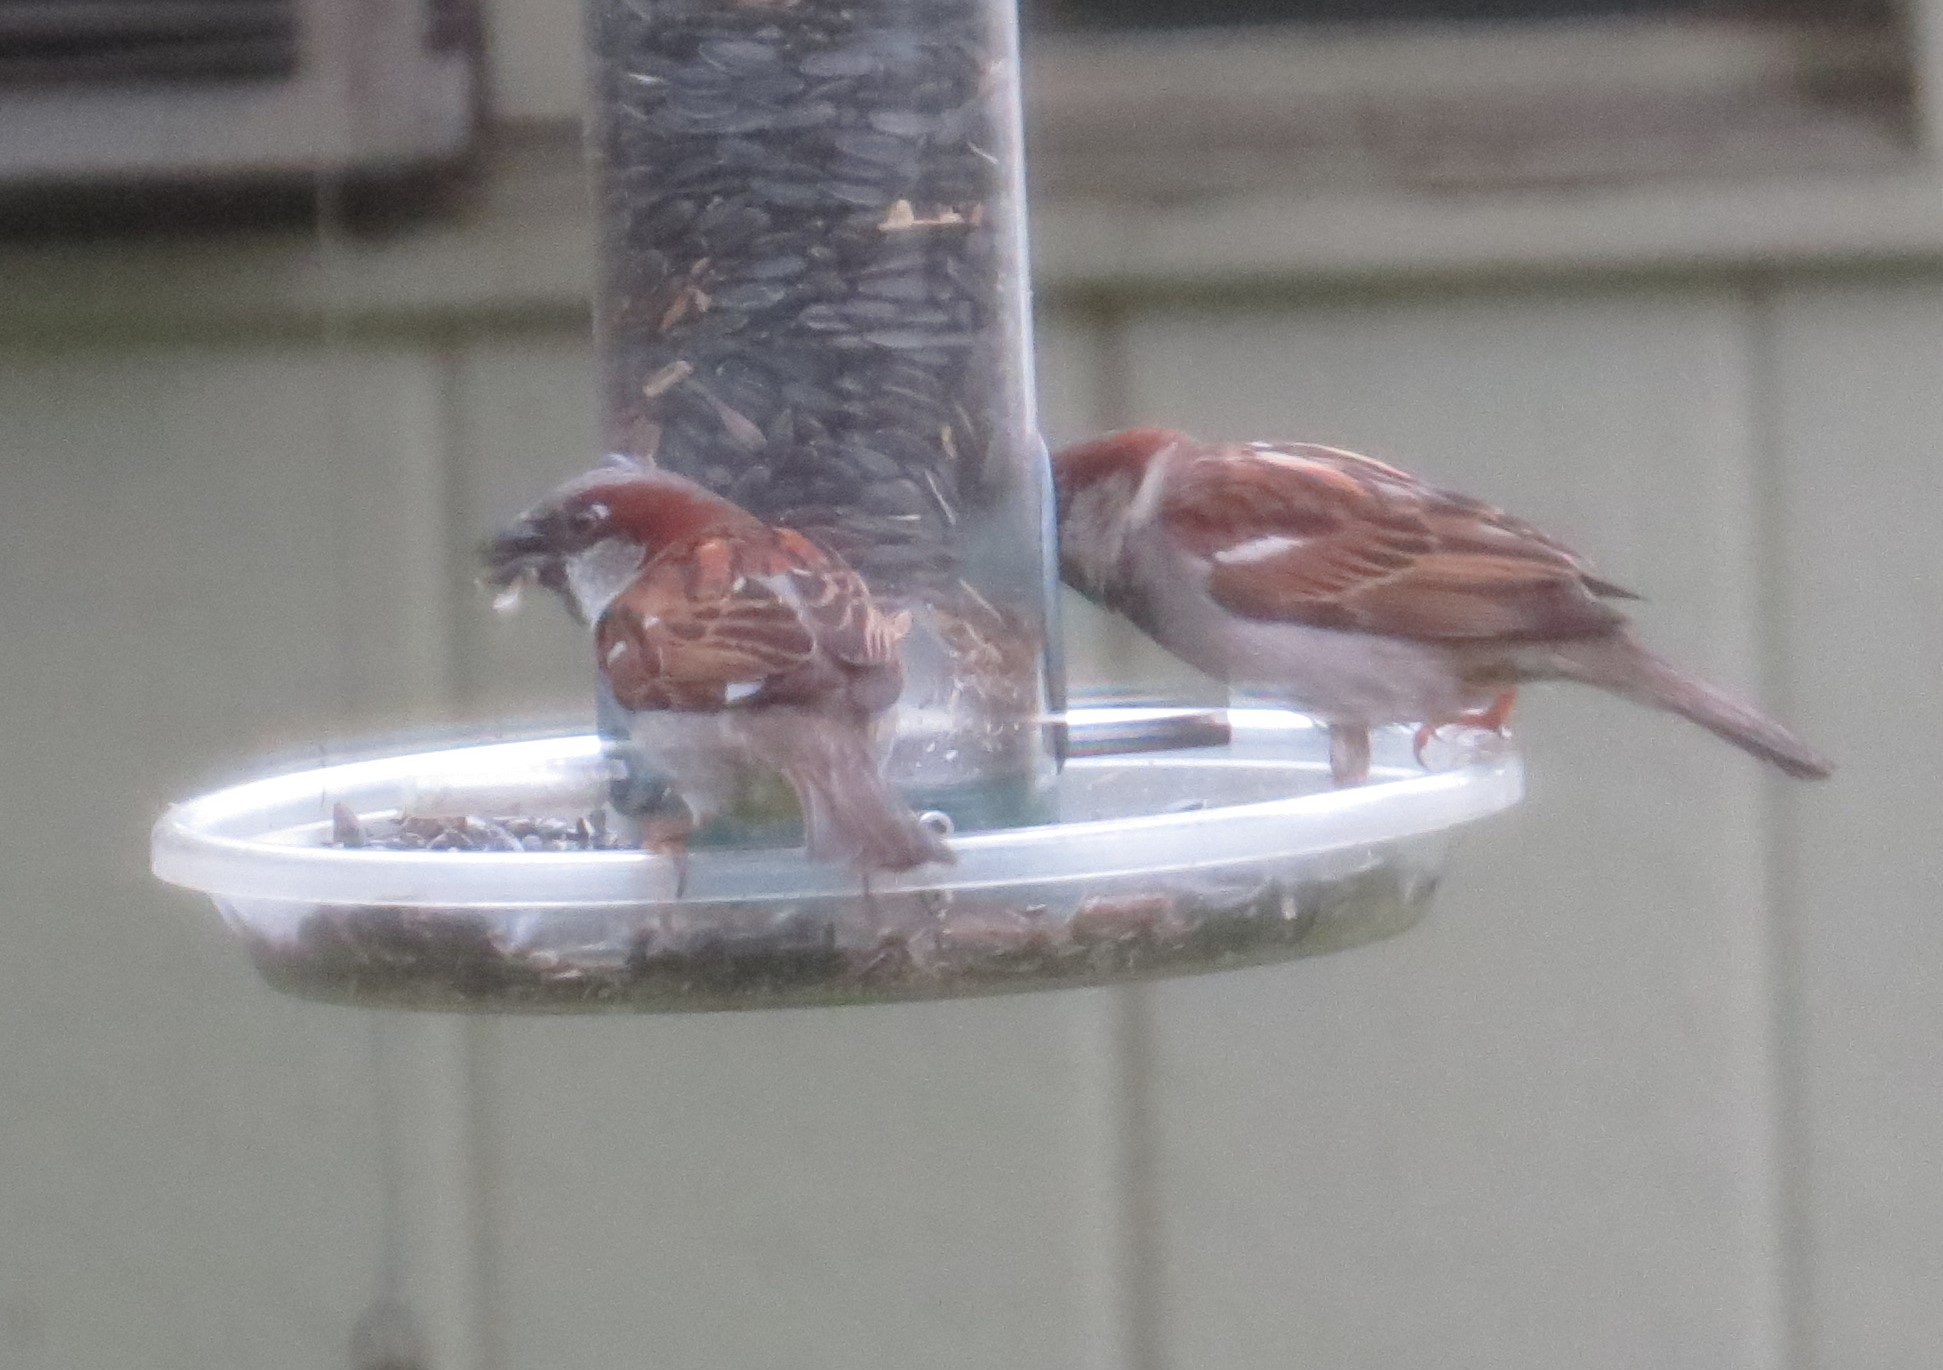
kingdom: Animalia
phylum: Chordata
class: Aves
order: Passeriformes
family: Passeridae
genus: Passer
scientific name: Passer domesticus
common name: House sparrow
